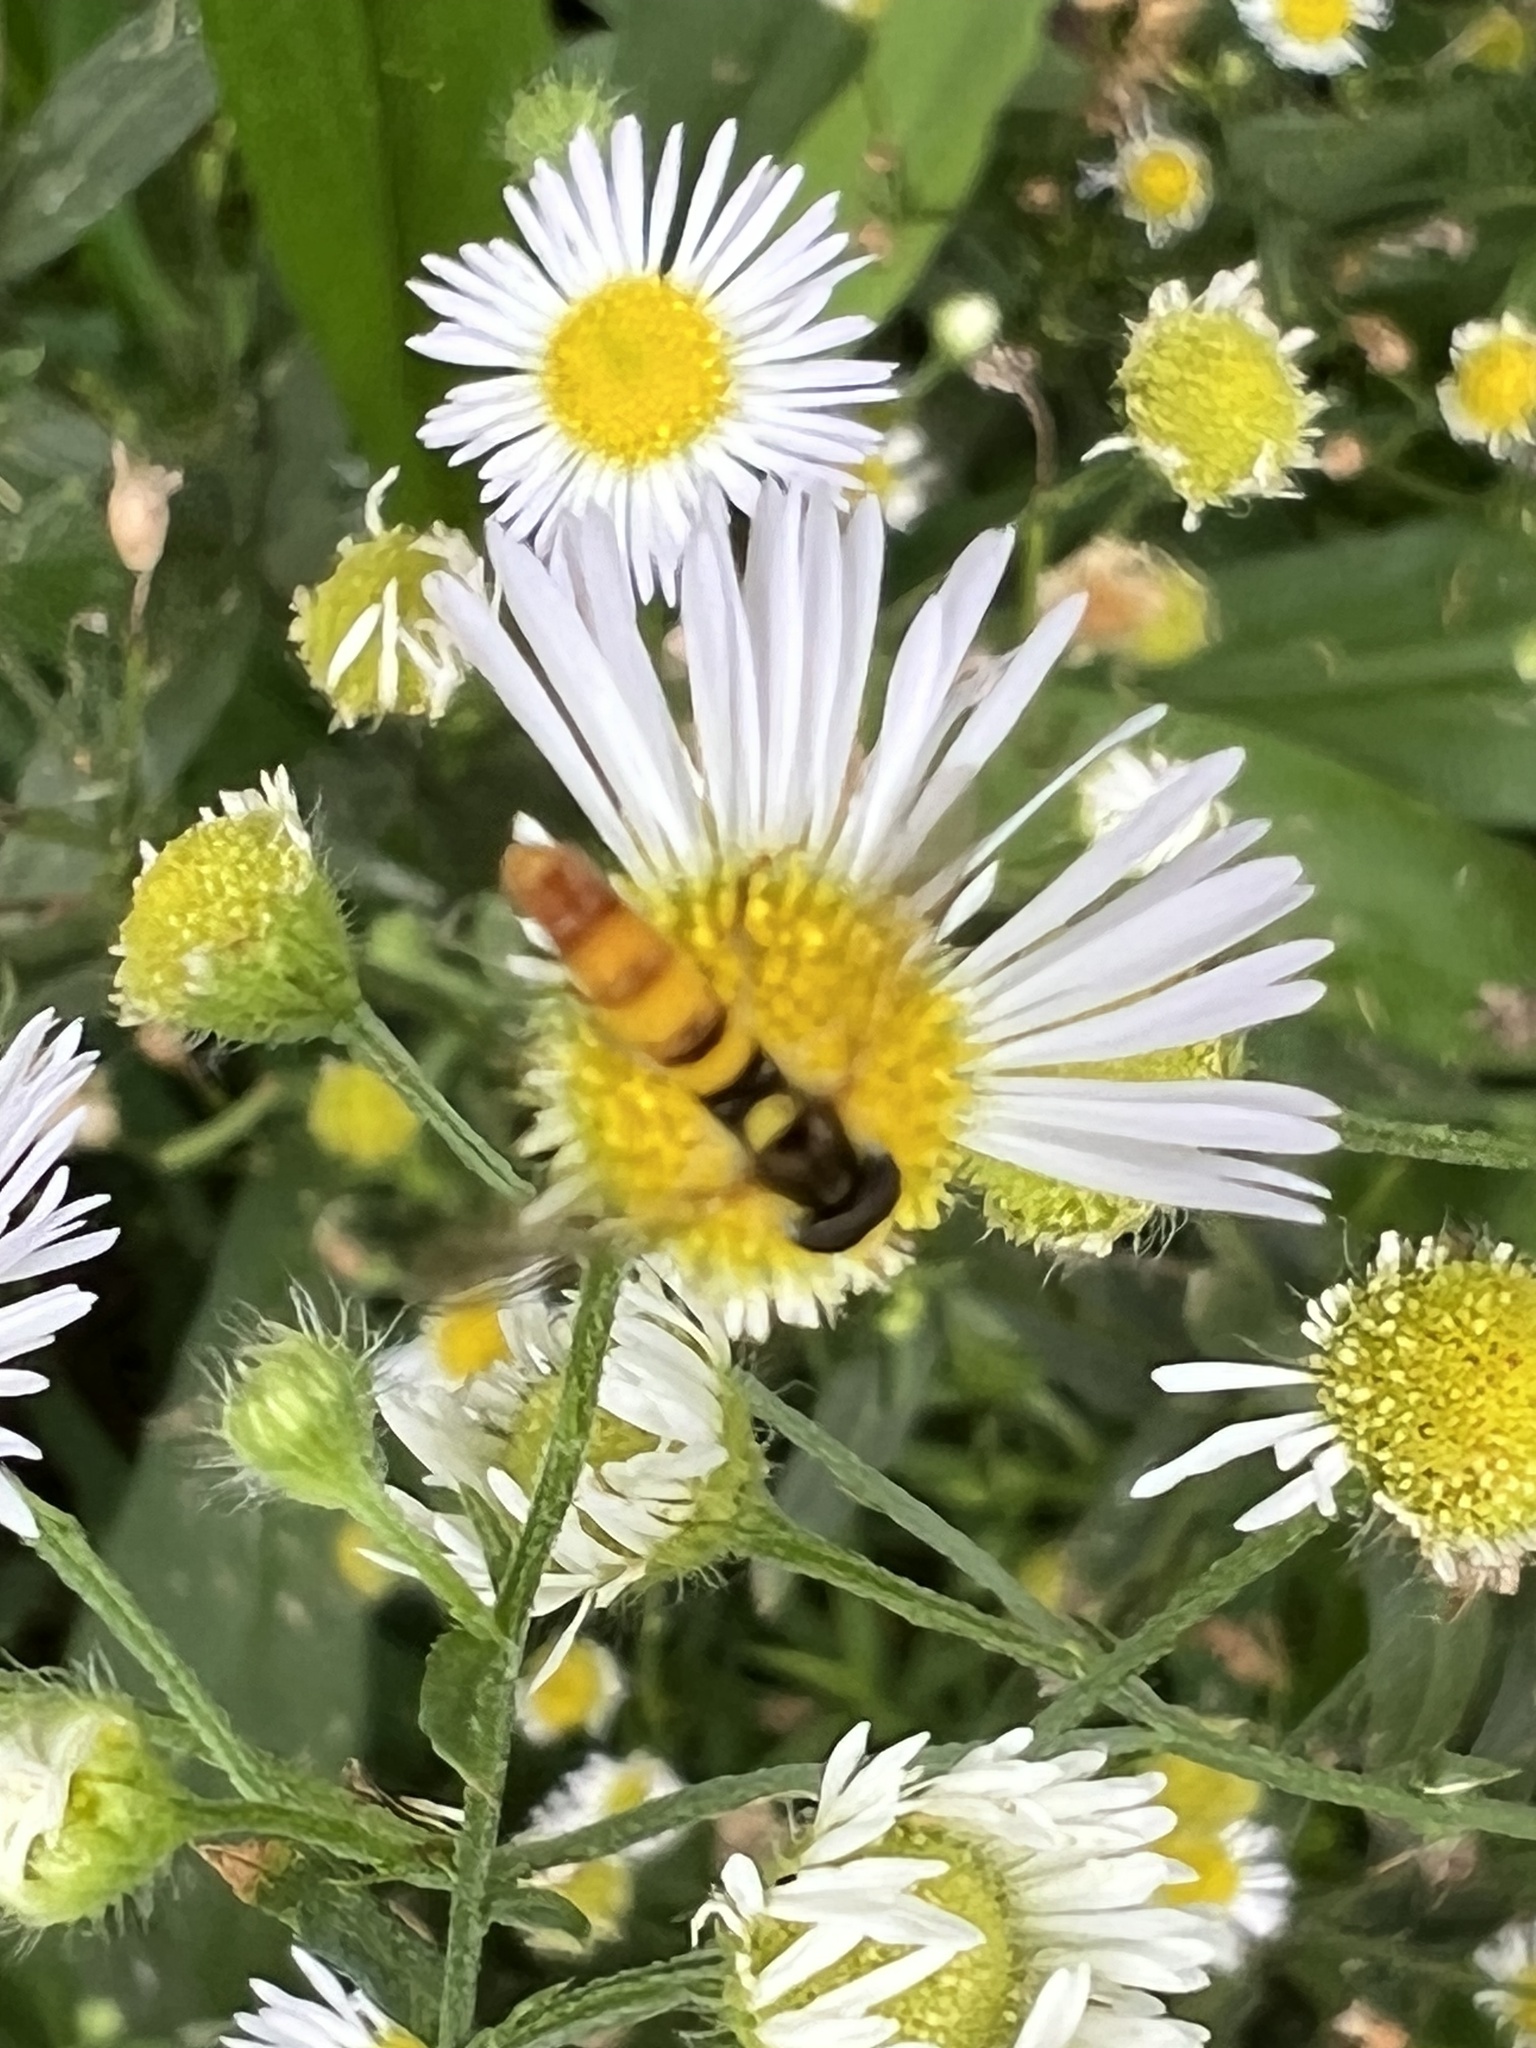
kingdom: Animalia
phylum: Arthropoda
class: Insecta
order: Diptera
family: Syrphidae
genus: Sphaerophoria
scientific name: Sphaerophoria contigua
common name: Tufted globetail
